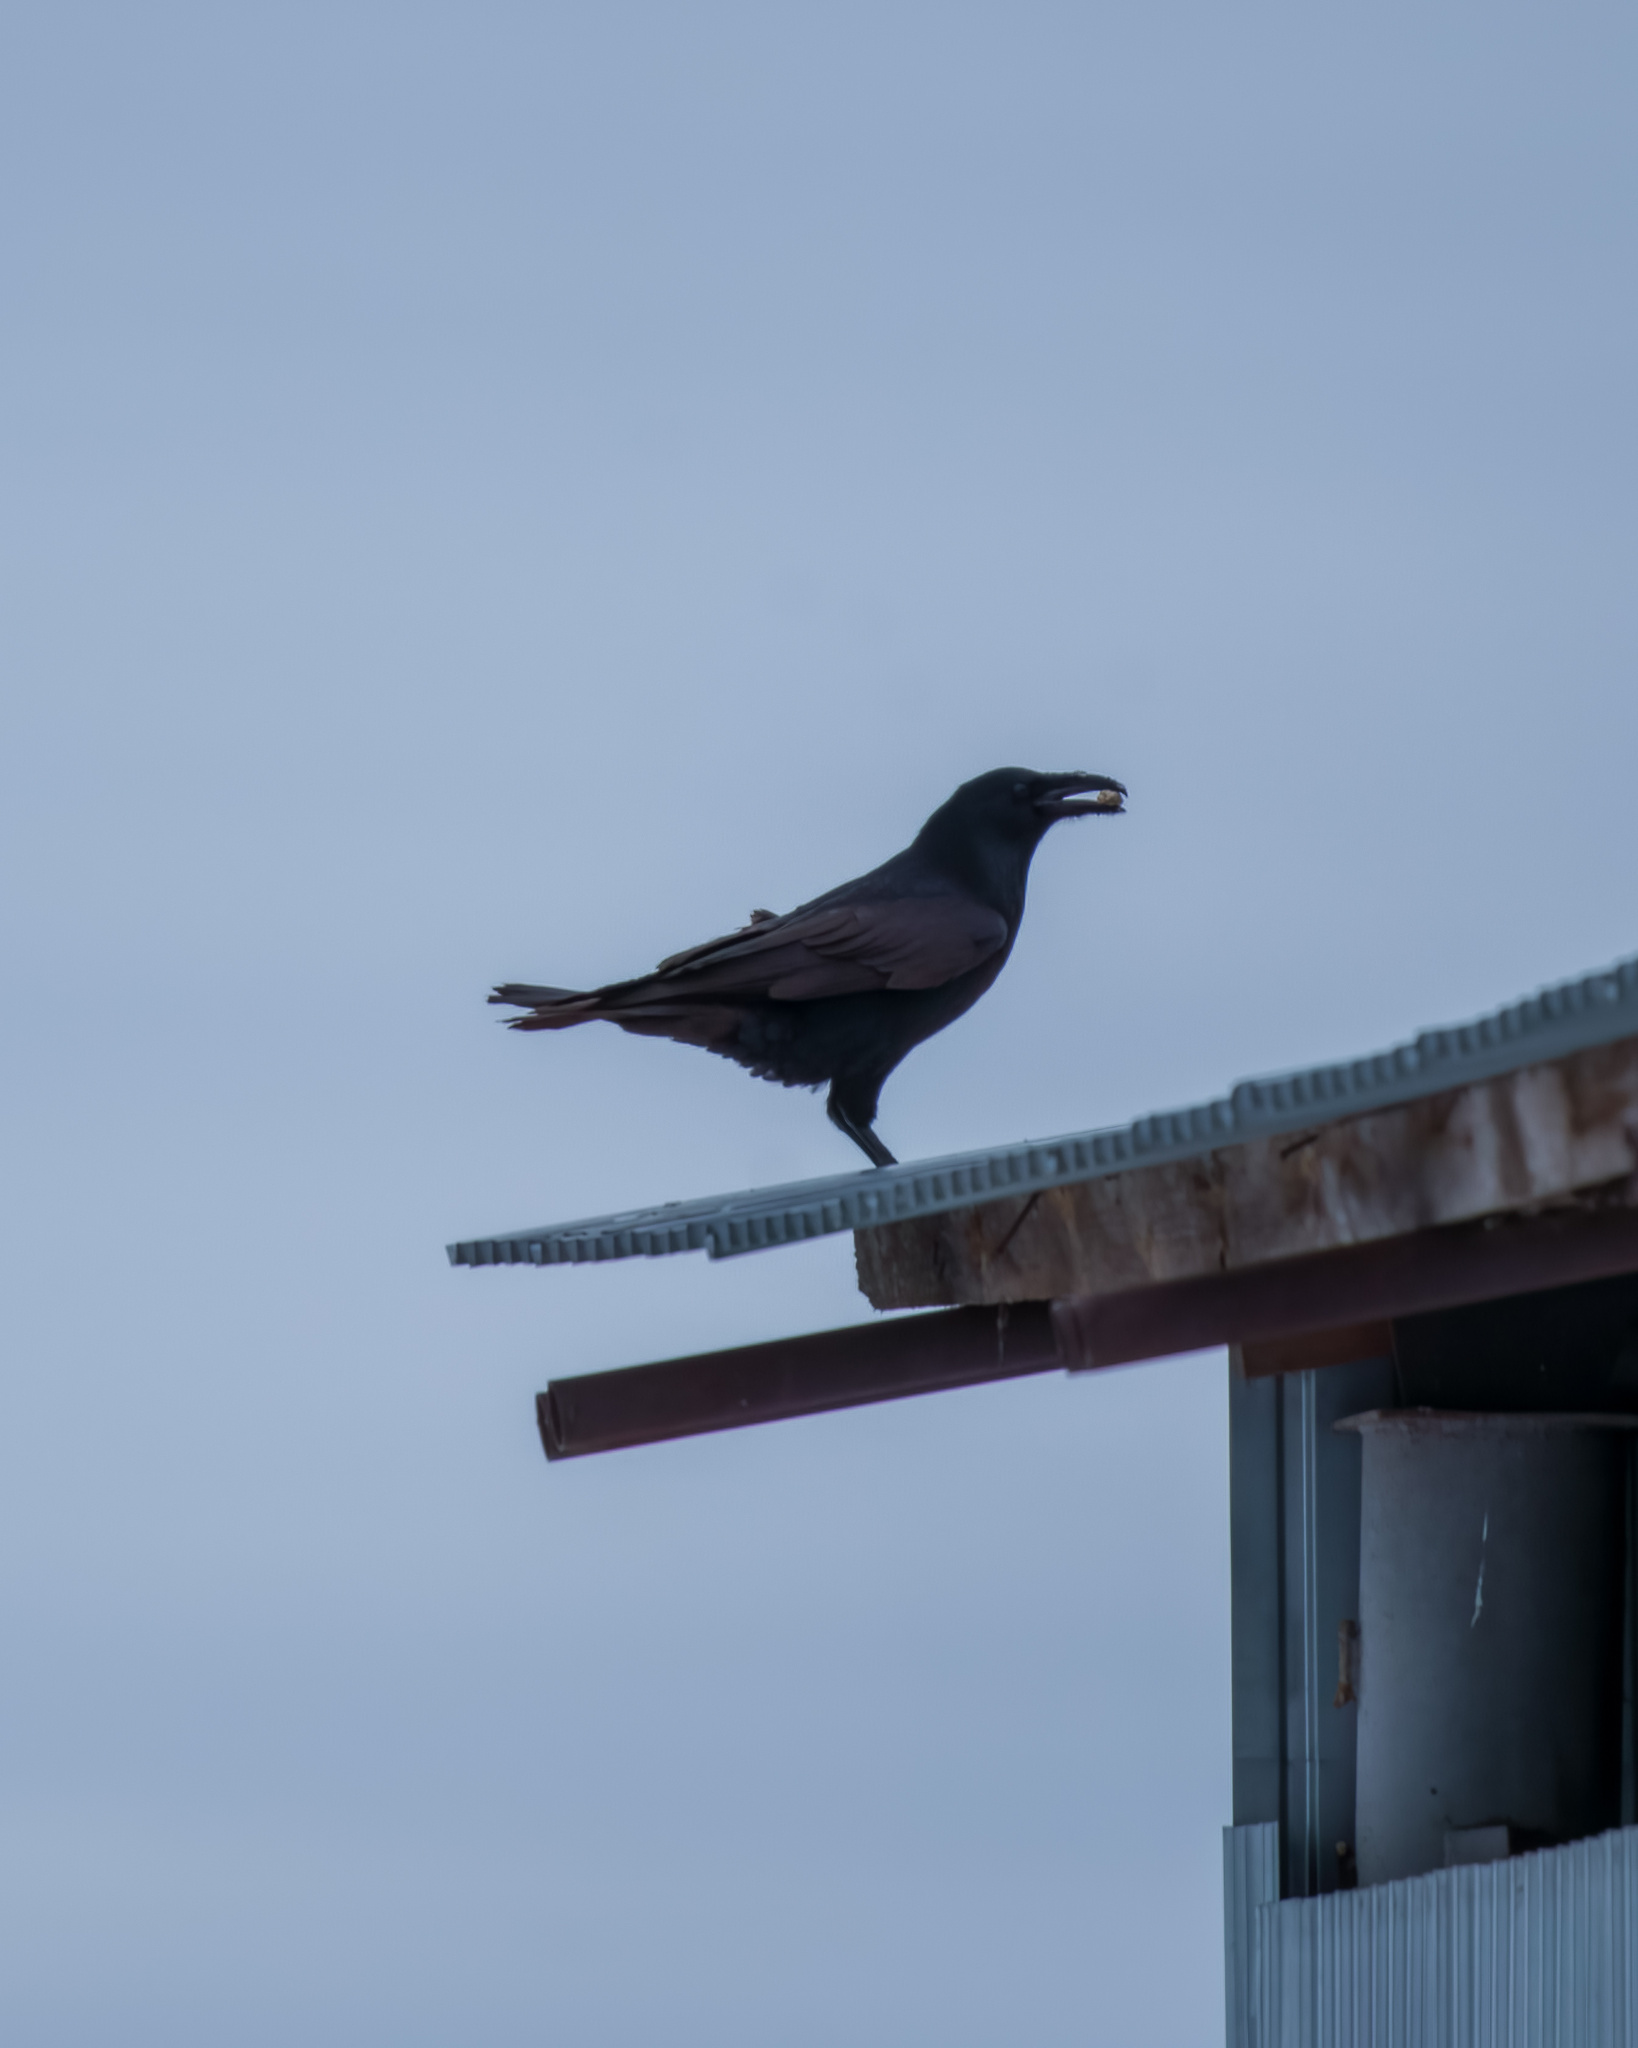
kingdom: Animalia
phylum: Chordata
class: Aves
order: Passeriformes
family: Corvidae
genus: Corvus
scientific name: Corvus corax
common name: Common raven
